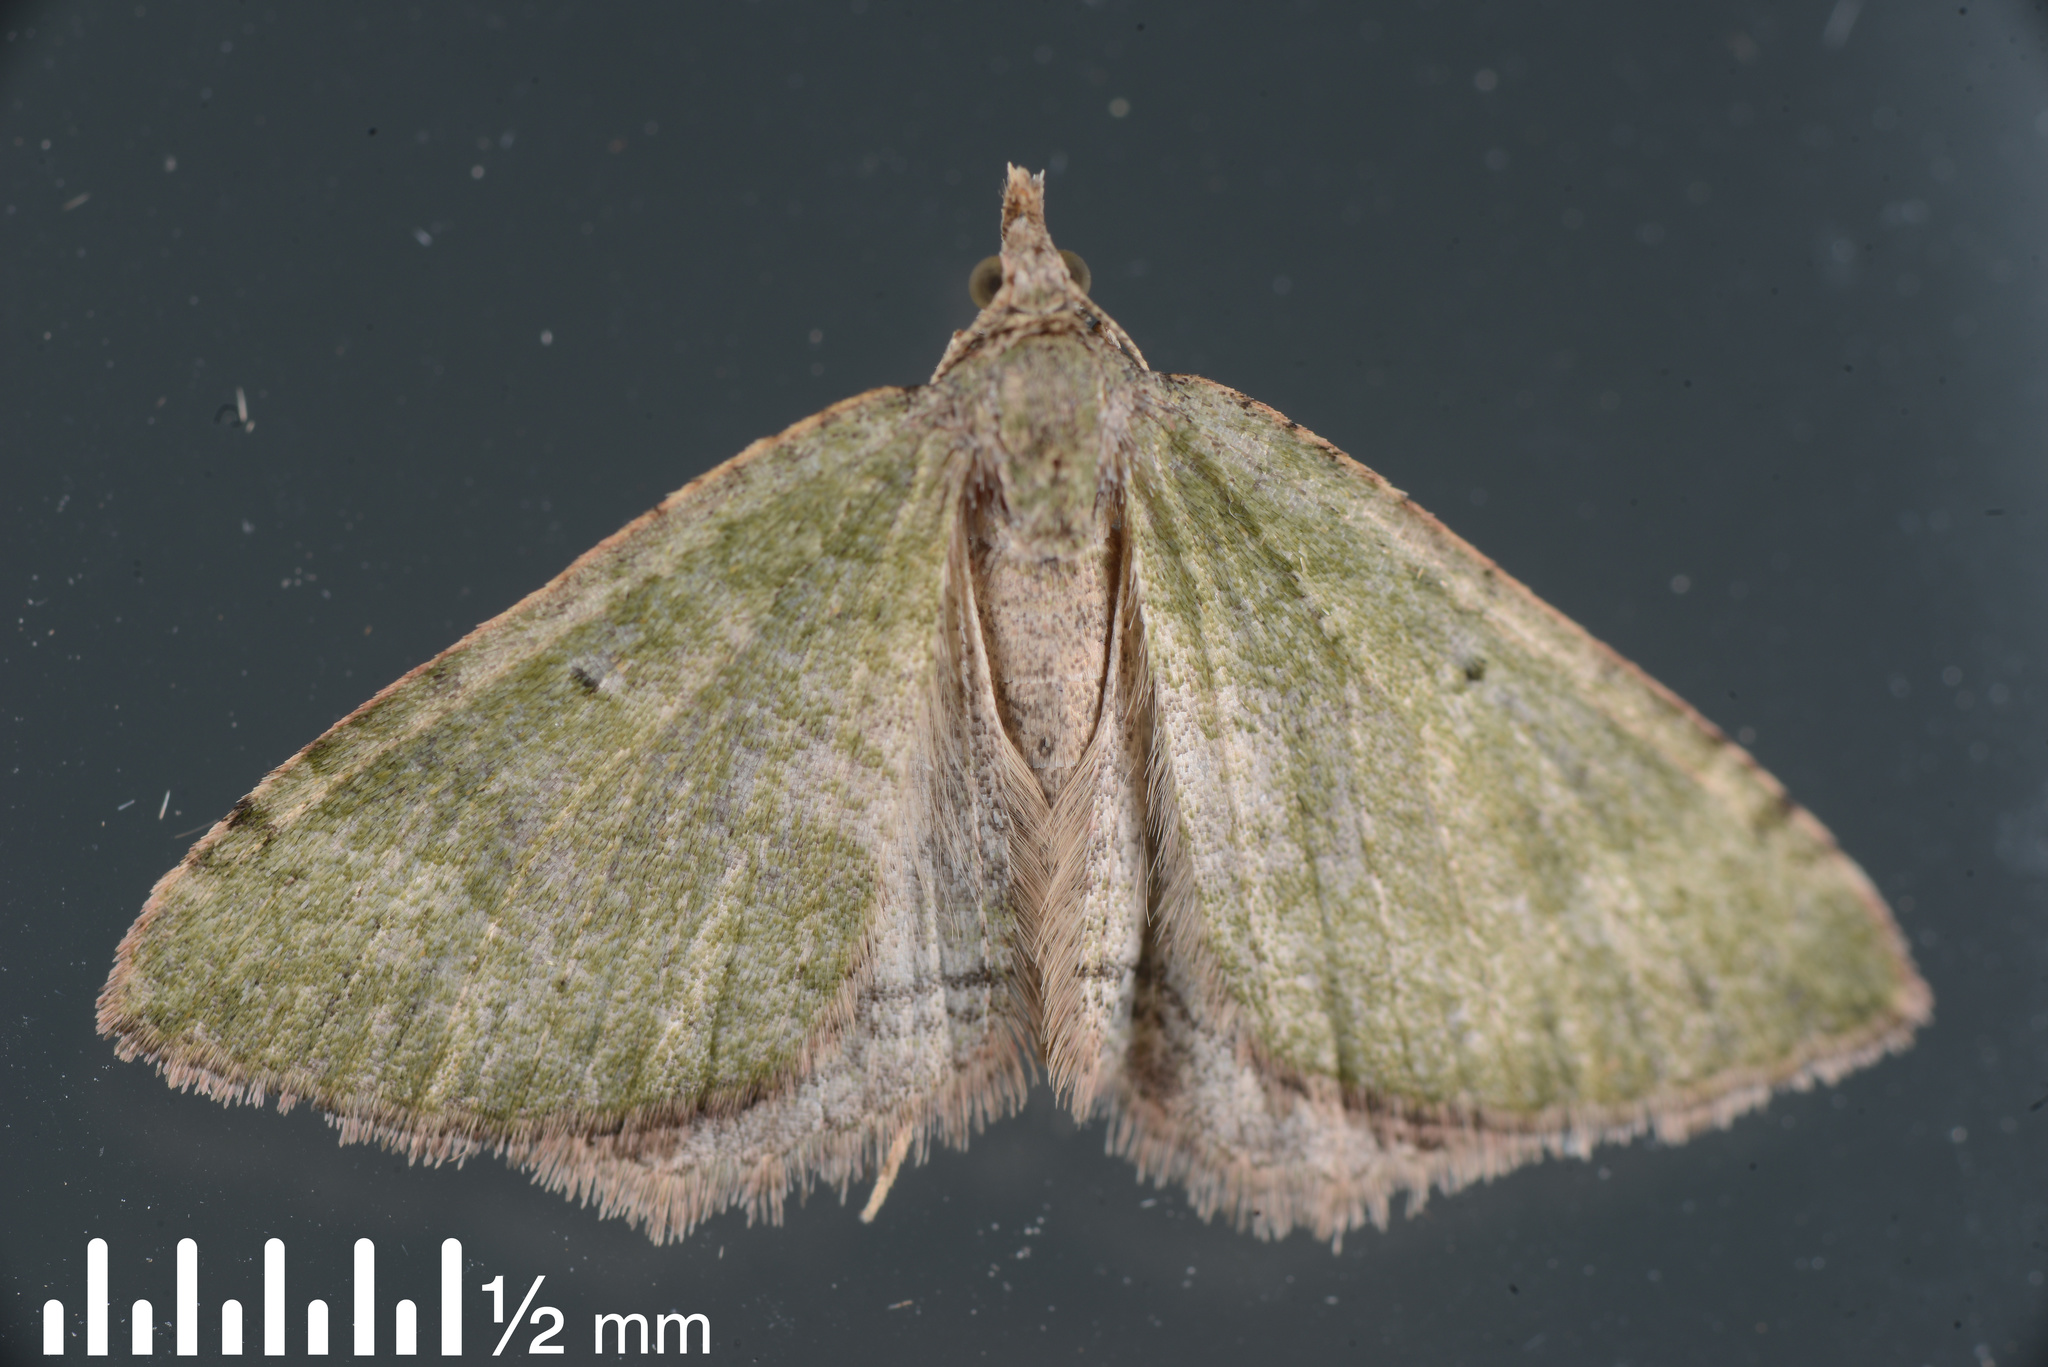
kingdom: Animalia
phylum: Arthropoda
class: Insecta
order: Lepidoptera
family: Geometridae
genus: Epyaxa
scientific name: Epyaxa rosearia
